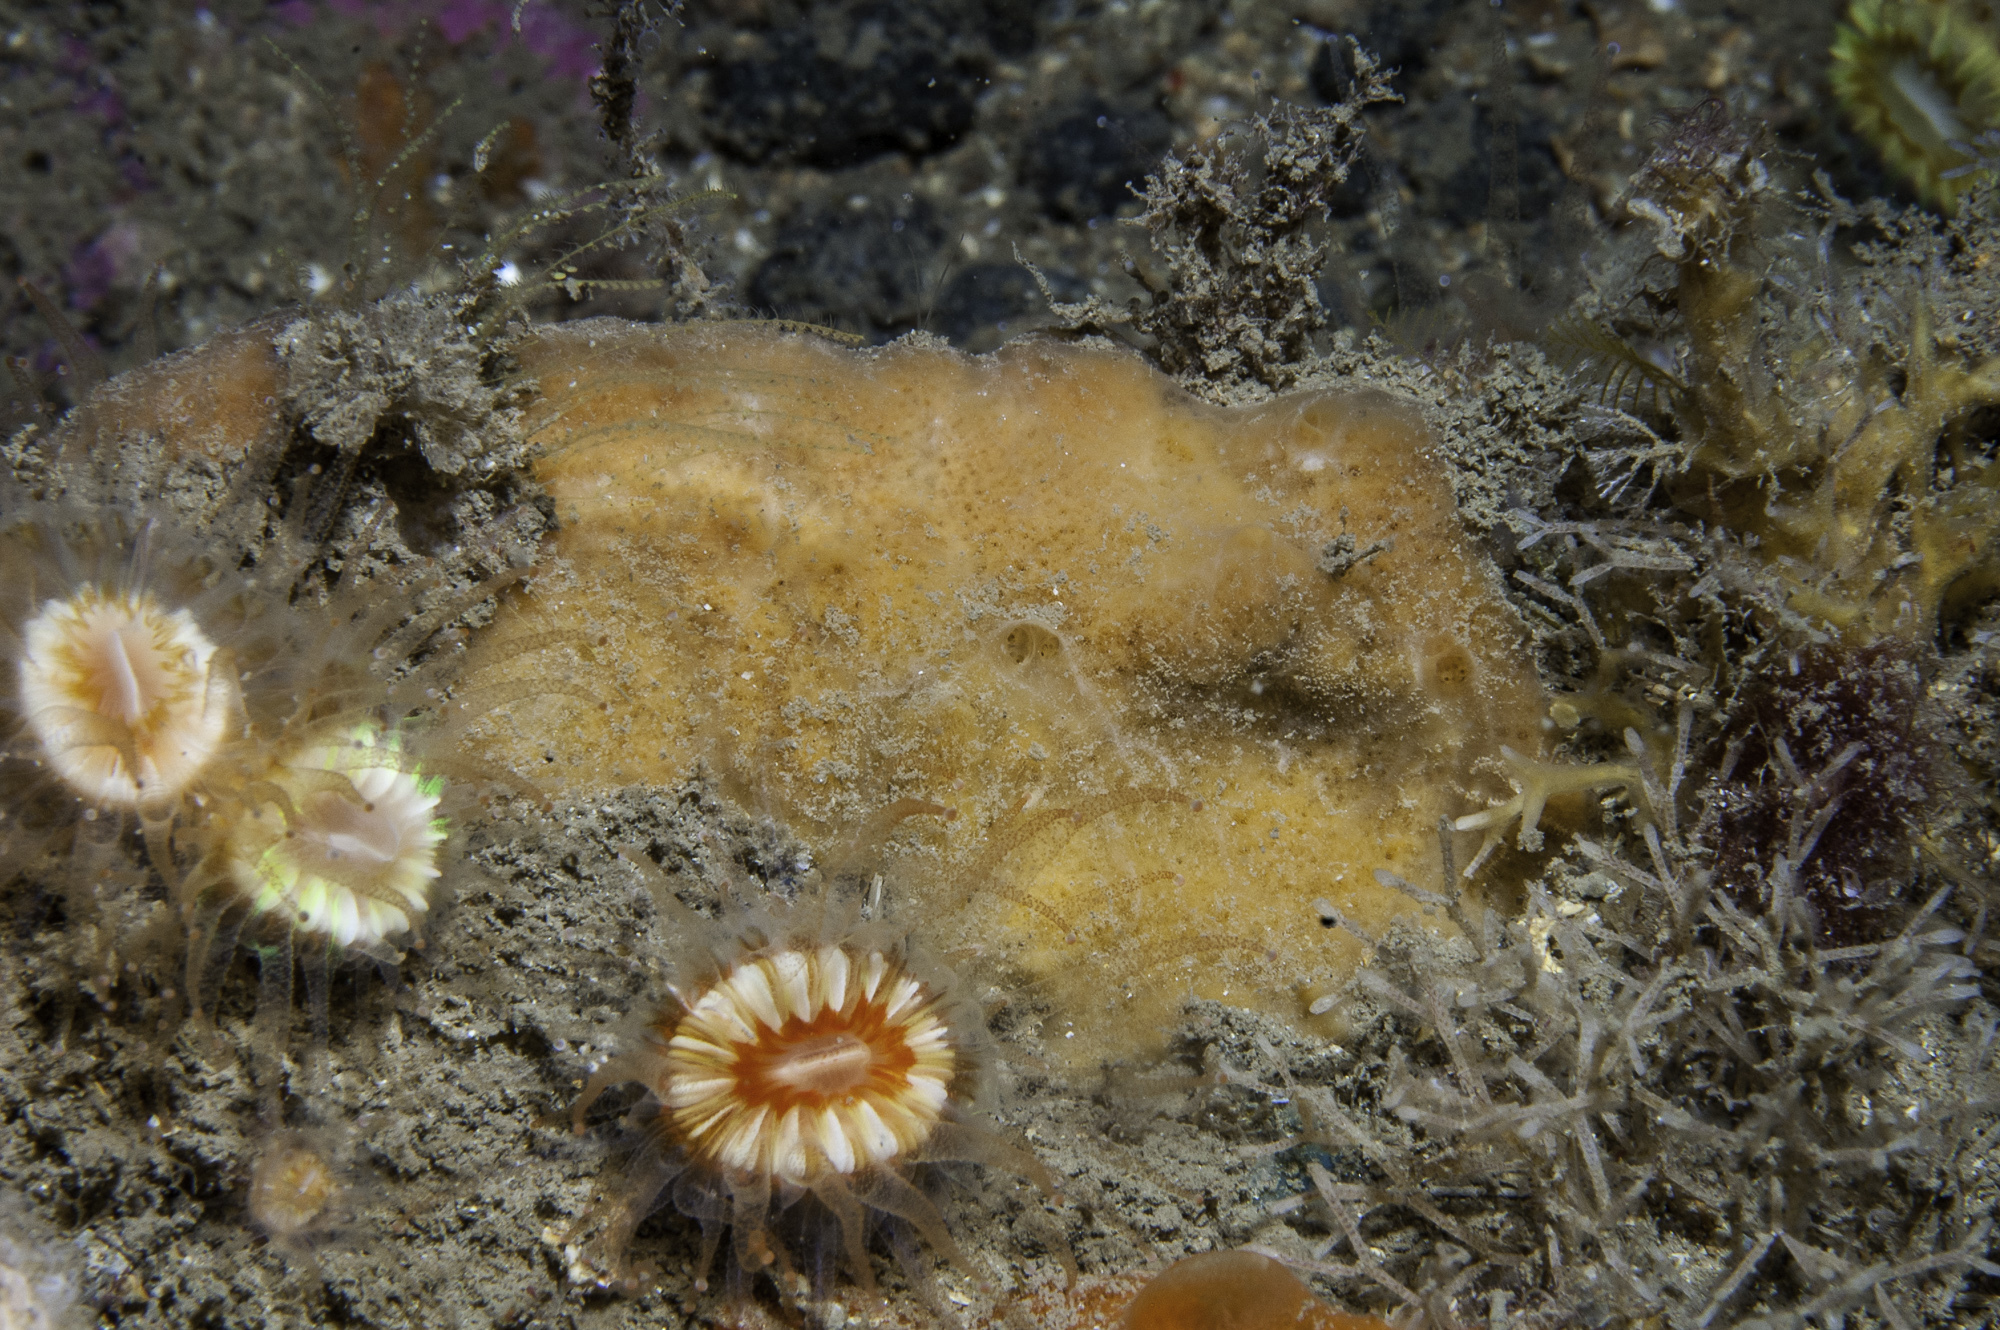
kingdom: Animalia
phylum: Porifera
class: Demospongiae
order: Poecilosclerida
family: Hymedesmiidae
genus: Plocamionida
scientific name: Plocamionida ambigua
